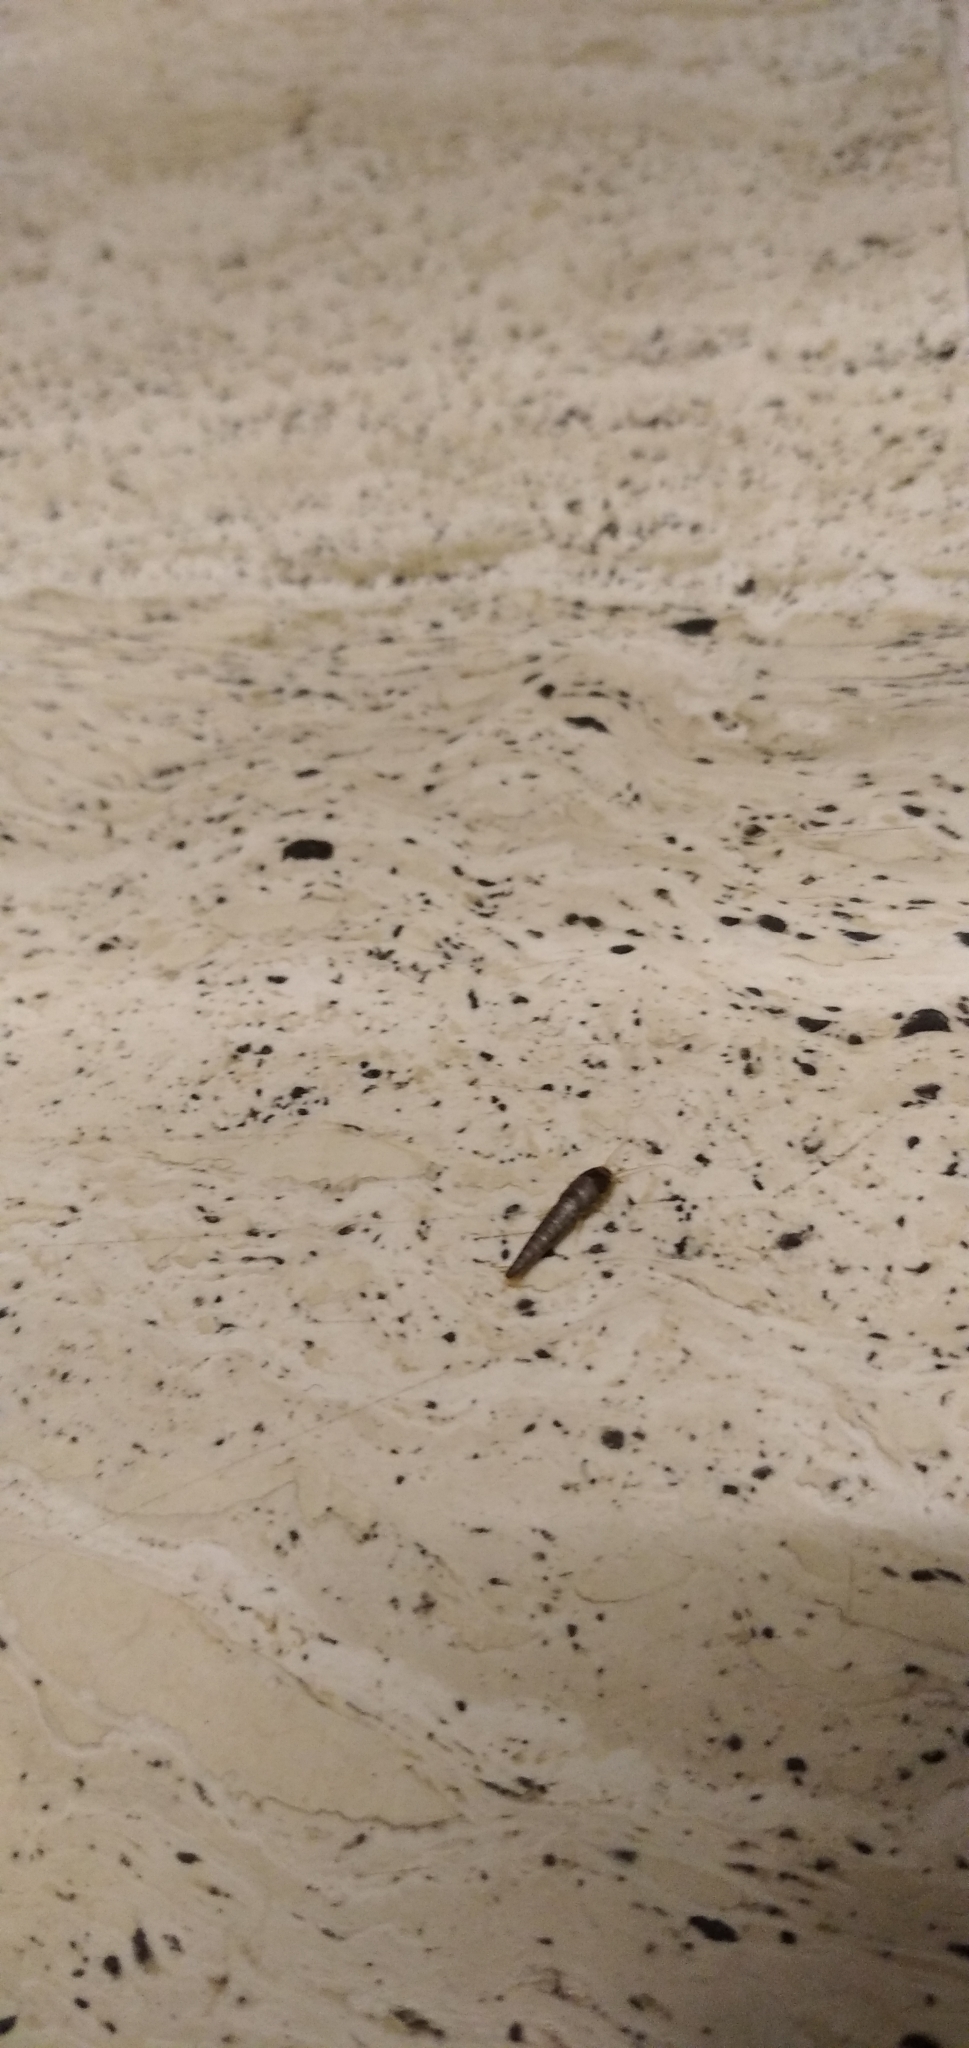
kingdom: Animalia
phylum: Arthropoda
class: Insecta
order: Zygentoma
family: Lepismatidae
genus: Lepisma
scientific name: Lepisma saccharinum
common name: Silverfish
